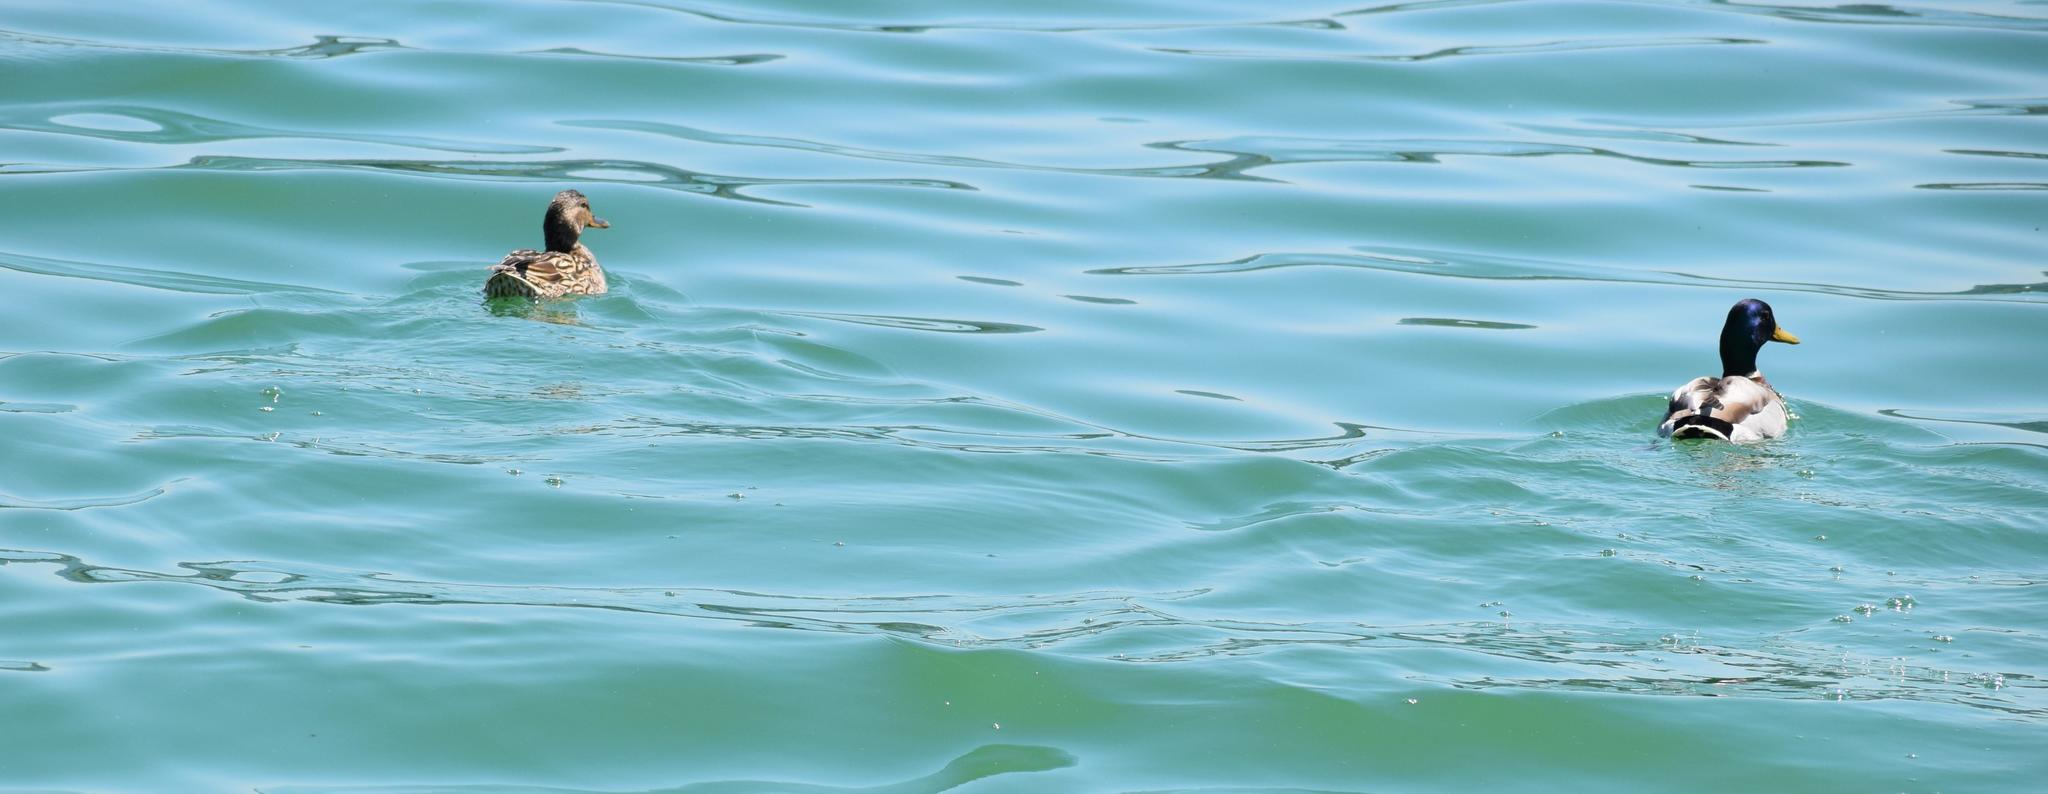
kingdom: Animalia
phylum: Chordata
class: Aves
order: Anseriformes
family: Anatidae
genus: Anas
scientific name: Anas platyrhynchos
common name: Mallard
